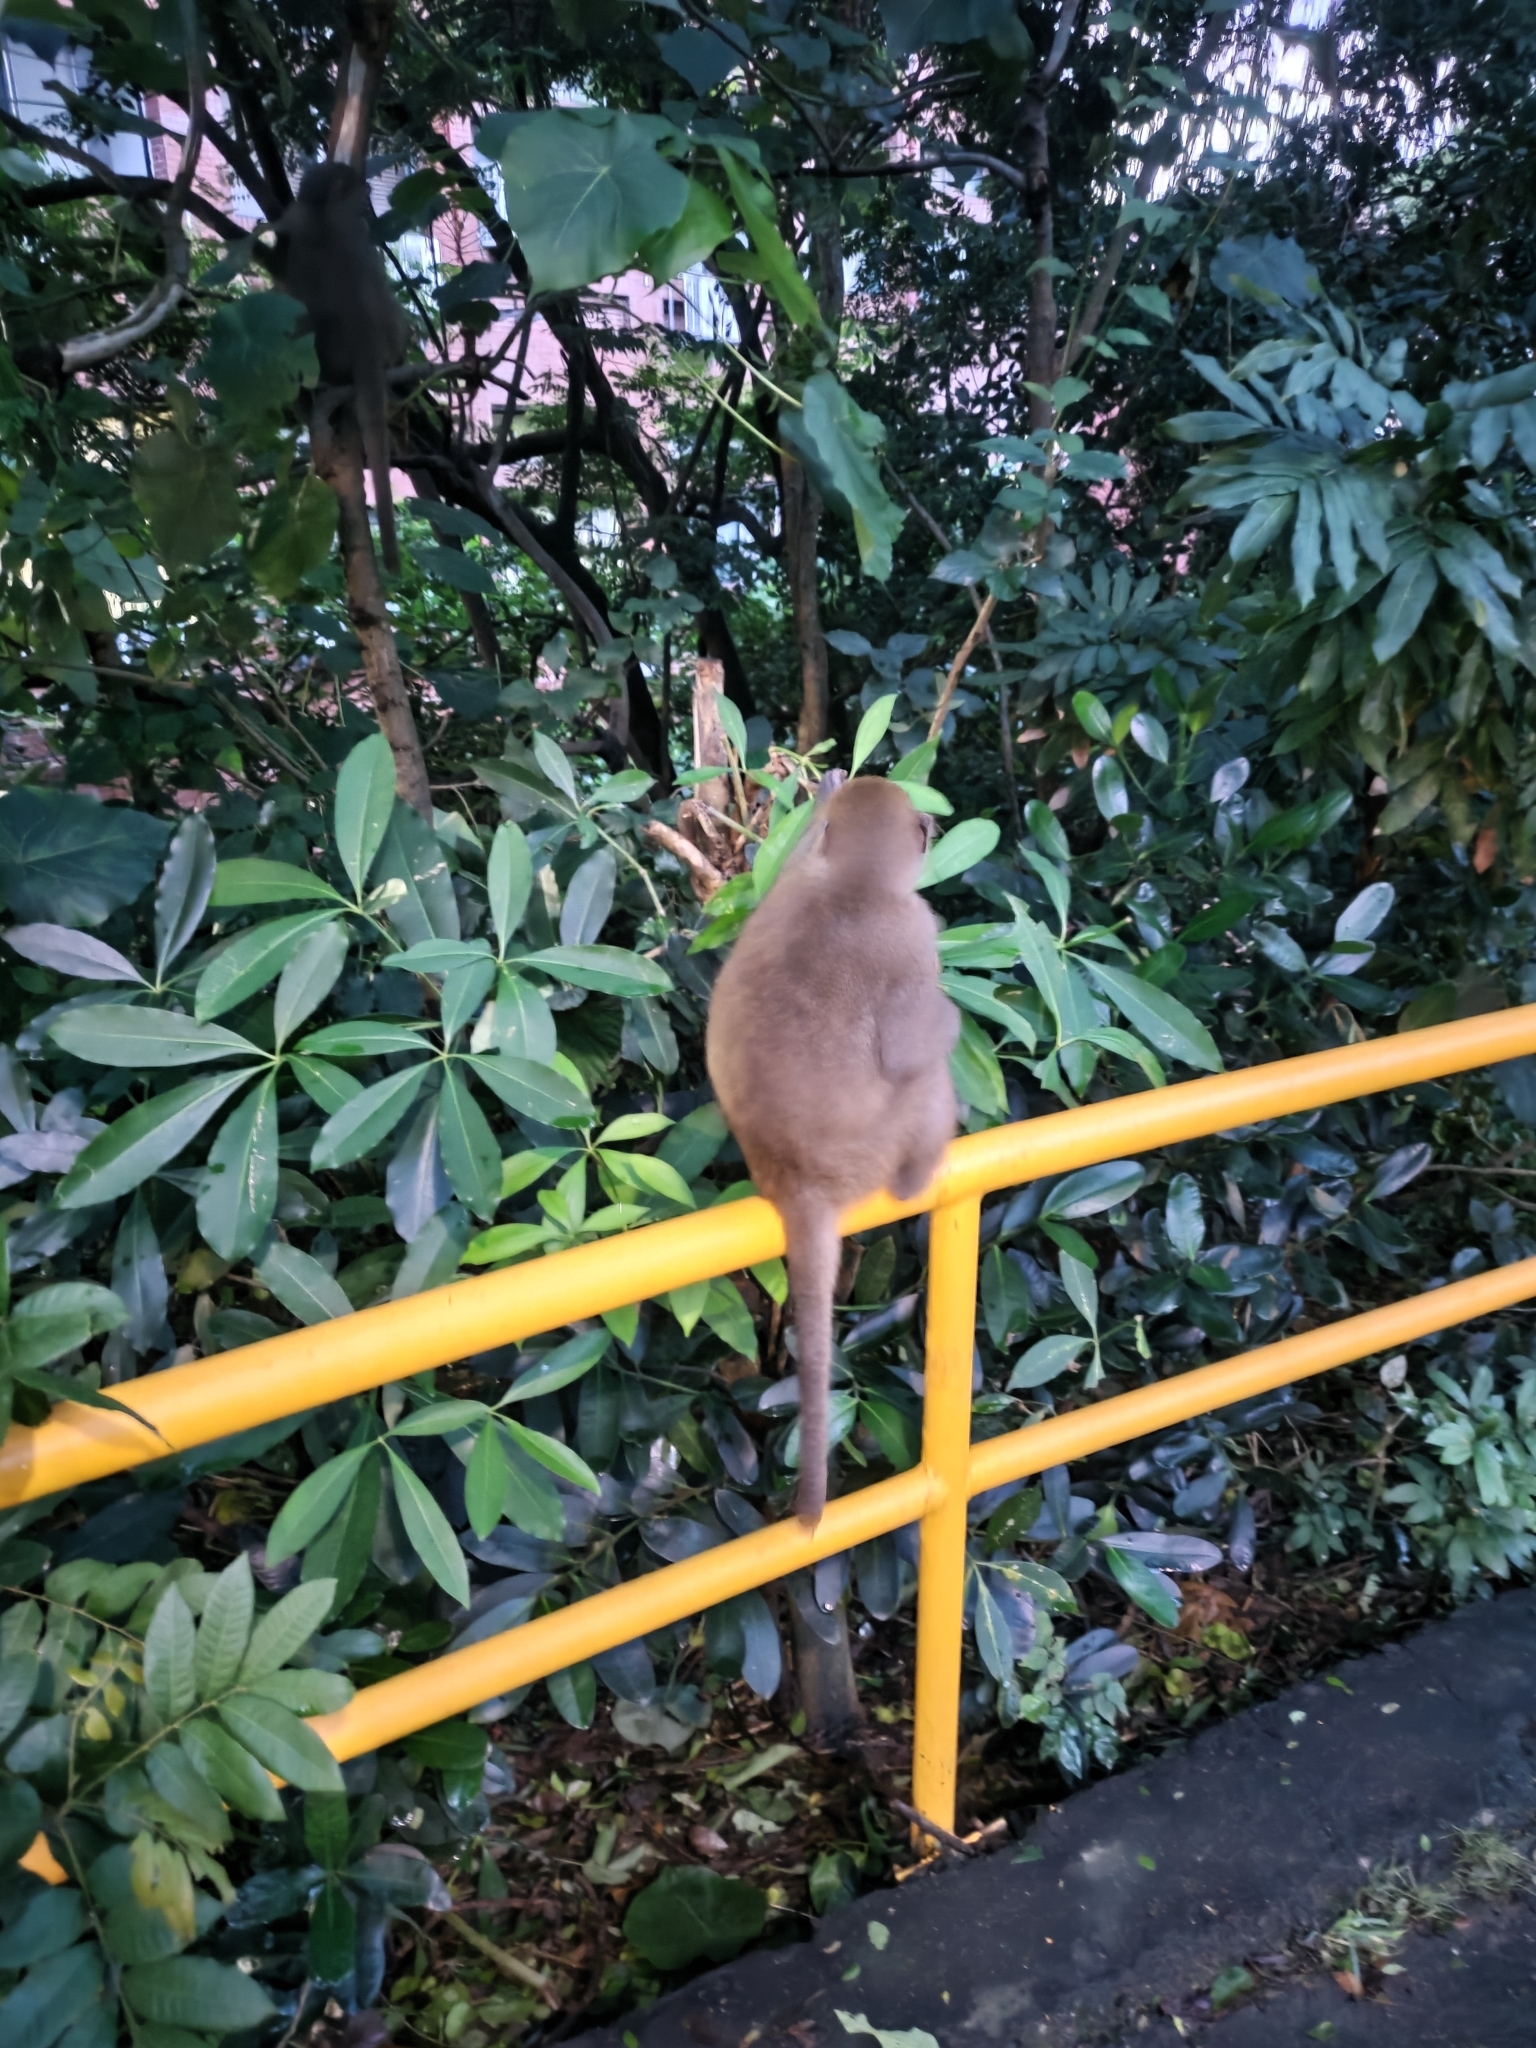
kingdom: Animalia
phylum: Chordata
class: Mammalia
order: Primates
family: Cercopithecidae
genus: Macaca
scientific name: Macaca cyclopis
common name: Formosan rock macaque
